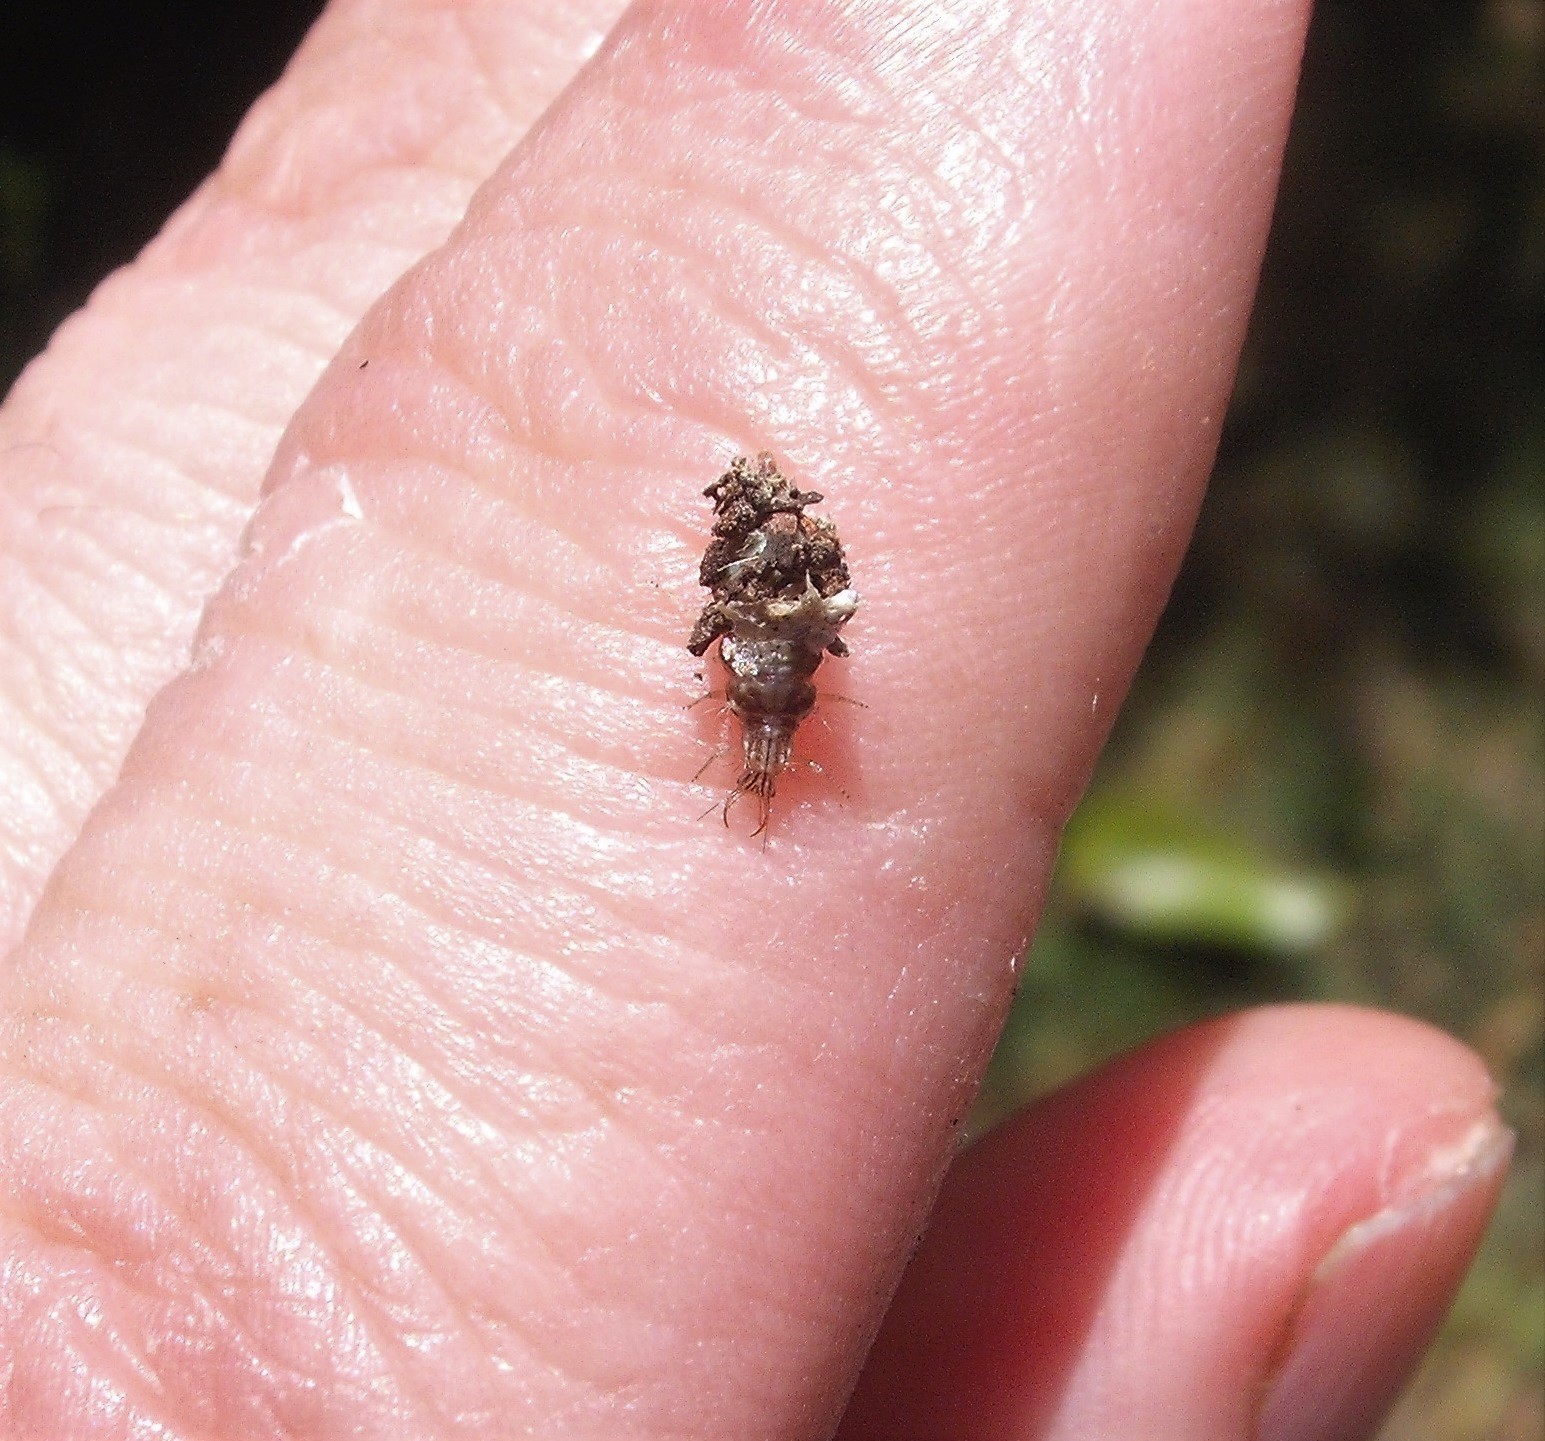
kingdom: Animalia
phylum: Arthropoda
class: Insecta
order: Neuroptera
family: Chrysopidae
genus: Mallada
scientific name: Mallada basalis
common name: Green lacewing
